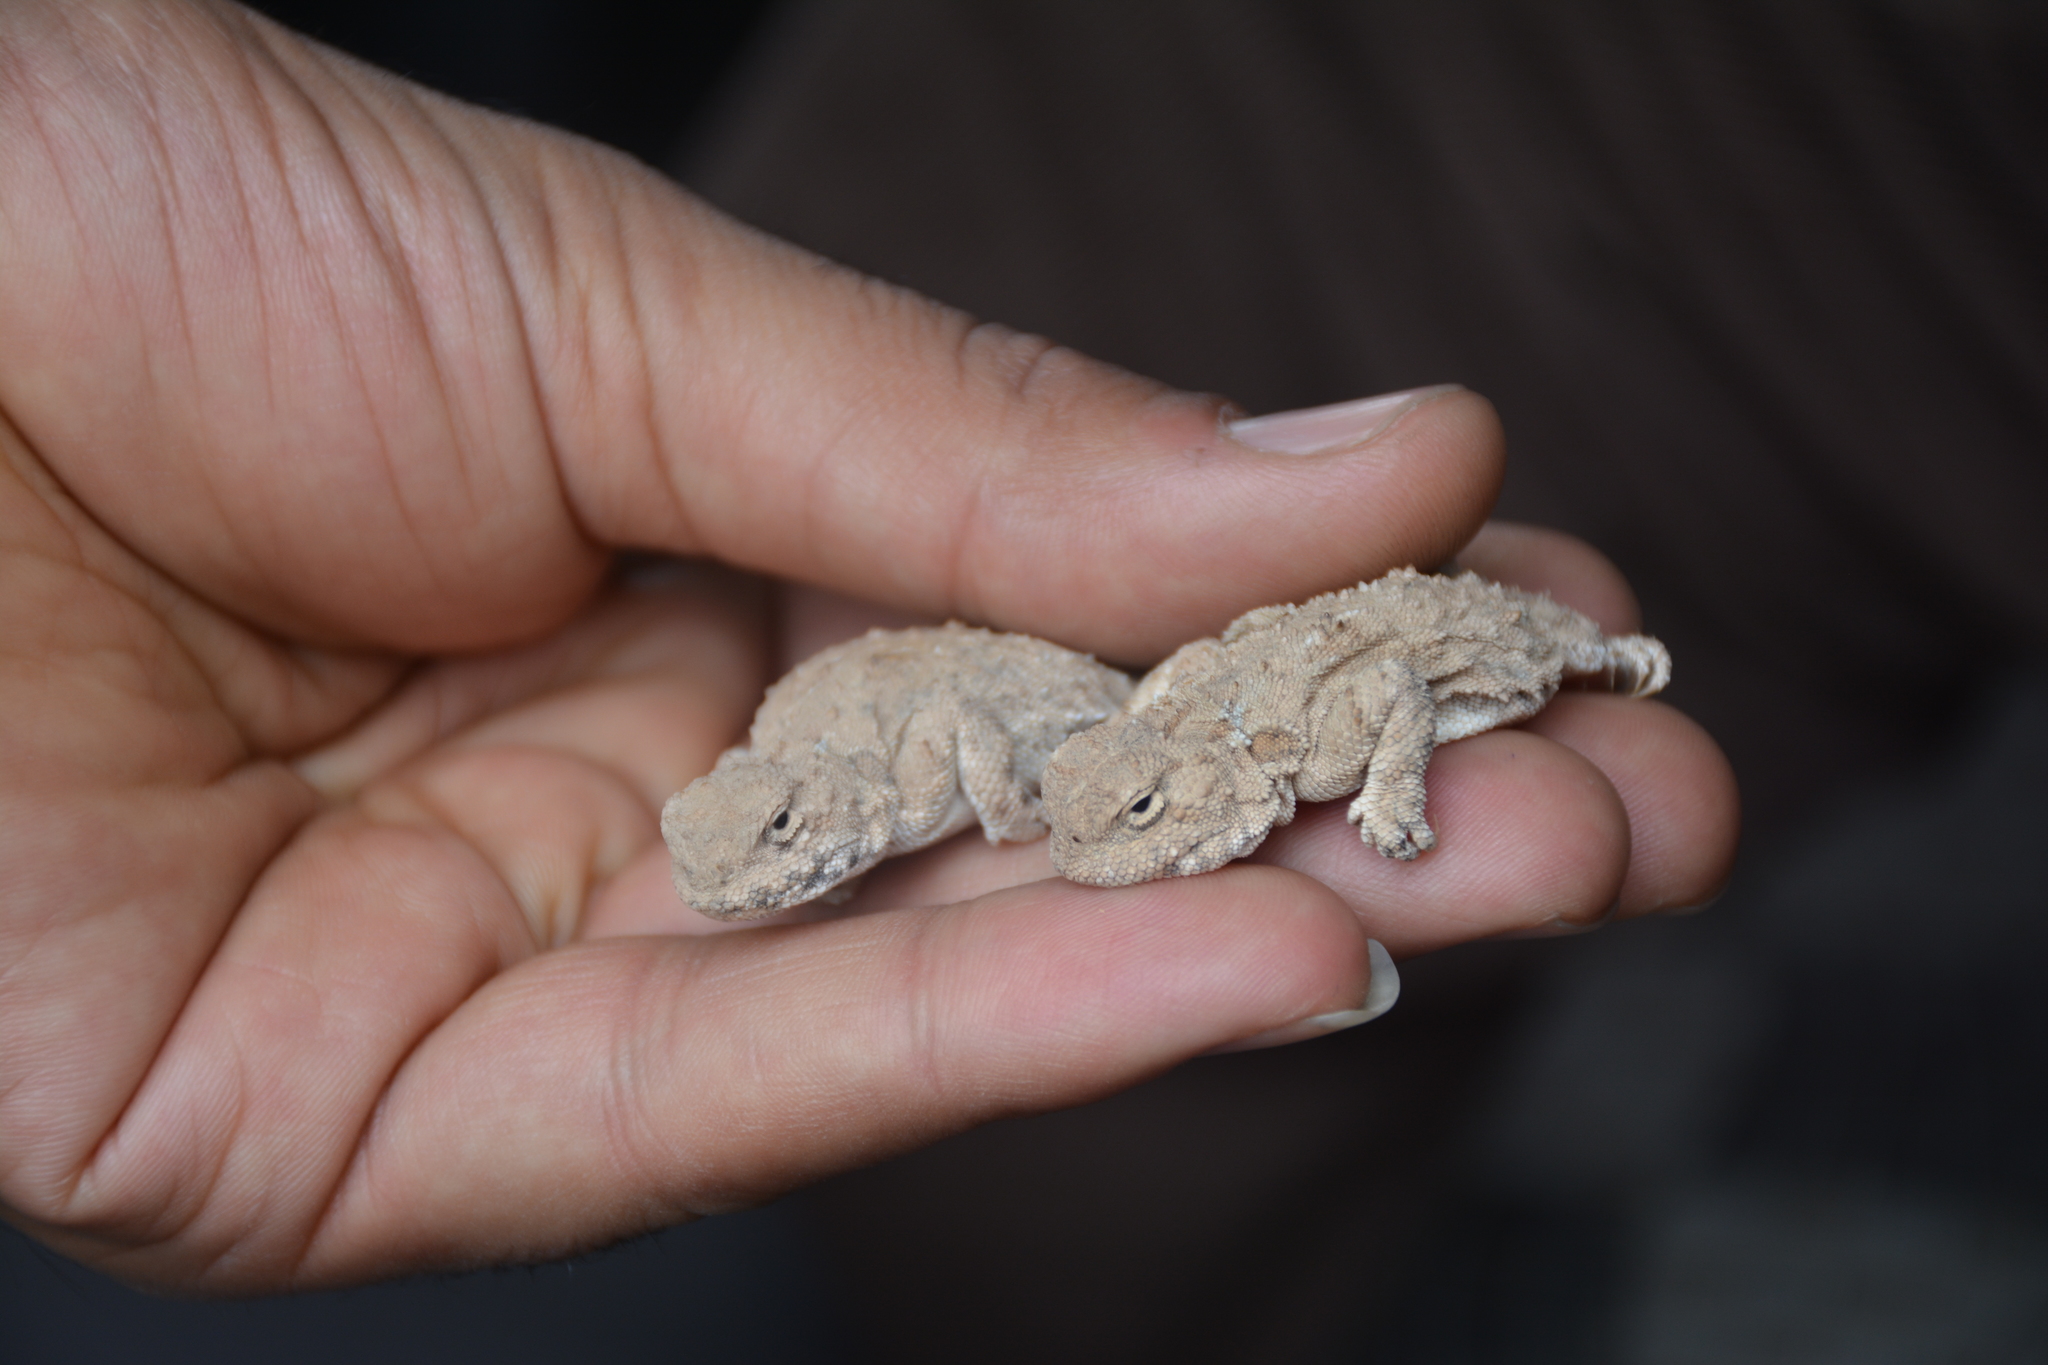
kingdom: Animalia
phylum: Chordata
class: Squamata
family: Agamidae
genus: Phrynocephalus
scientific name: Phrynocephalus persicus
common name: Persian toad agame
